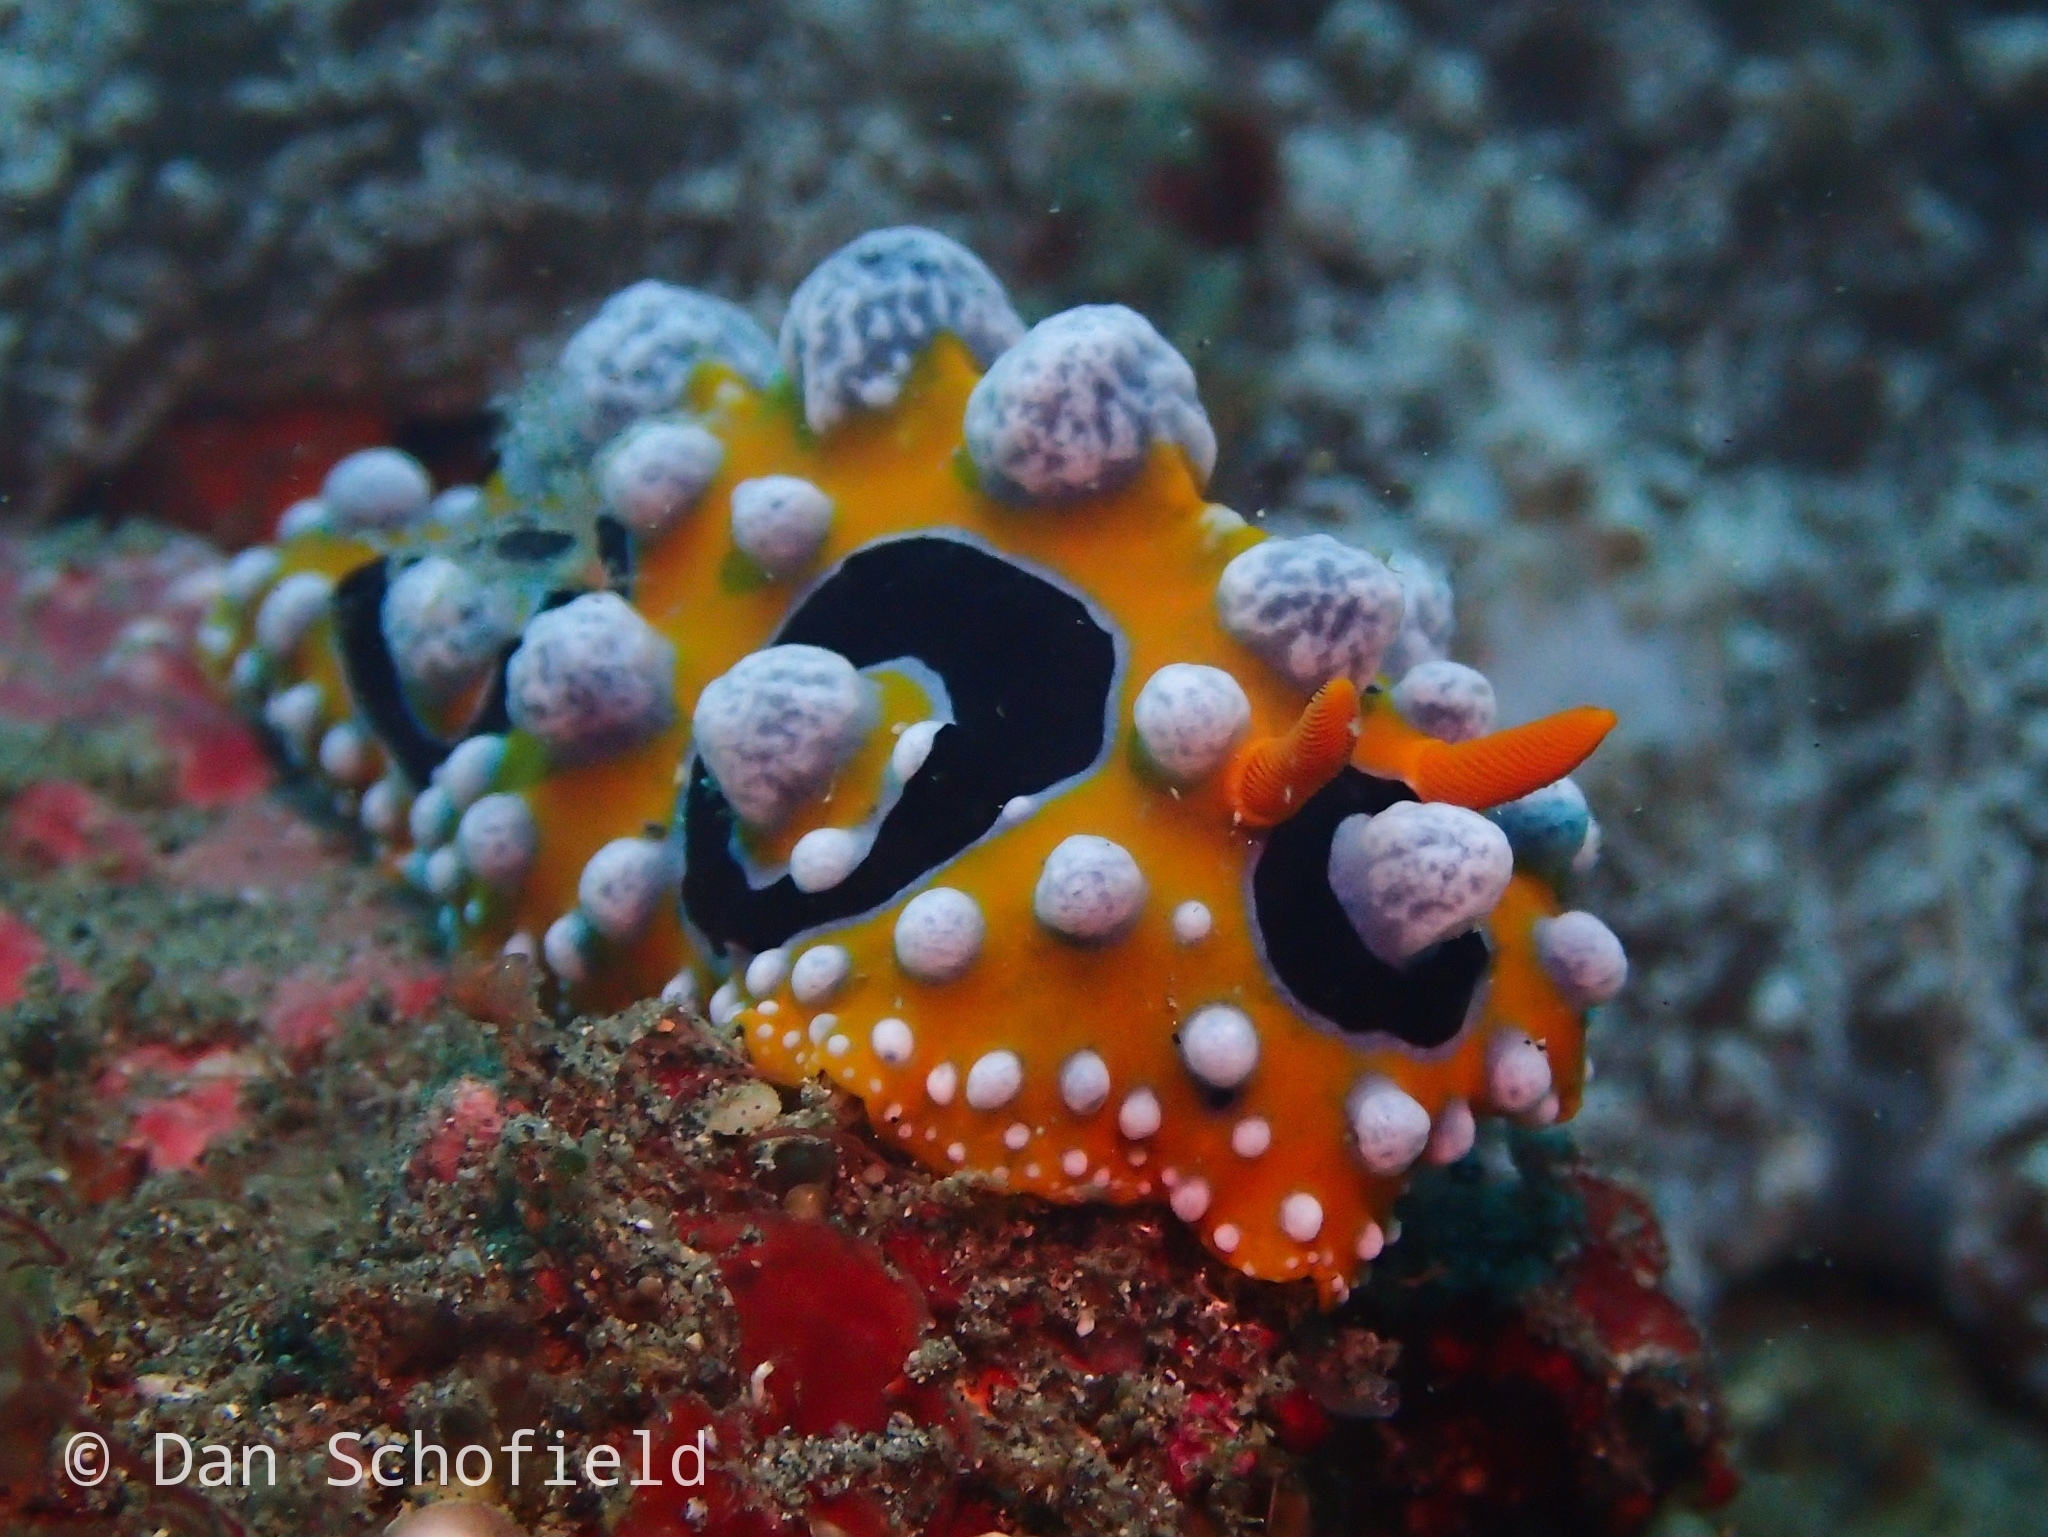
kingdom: Animalia
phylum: Mollusca
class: Gastropoda
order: Nudibranchia
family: Phyllidiidae
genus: Phyllidia
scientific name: Phyllidia ocellata
